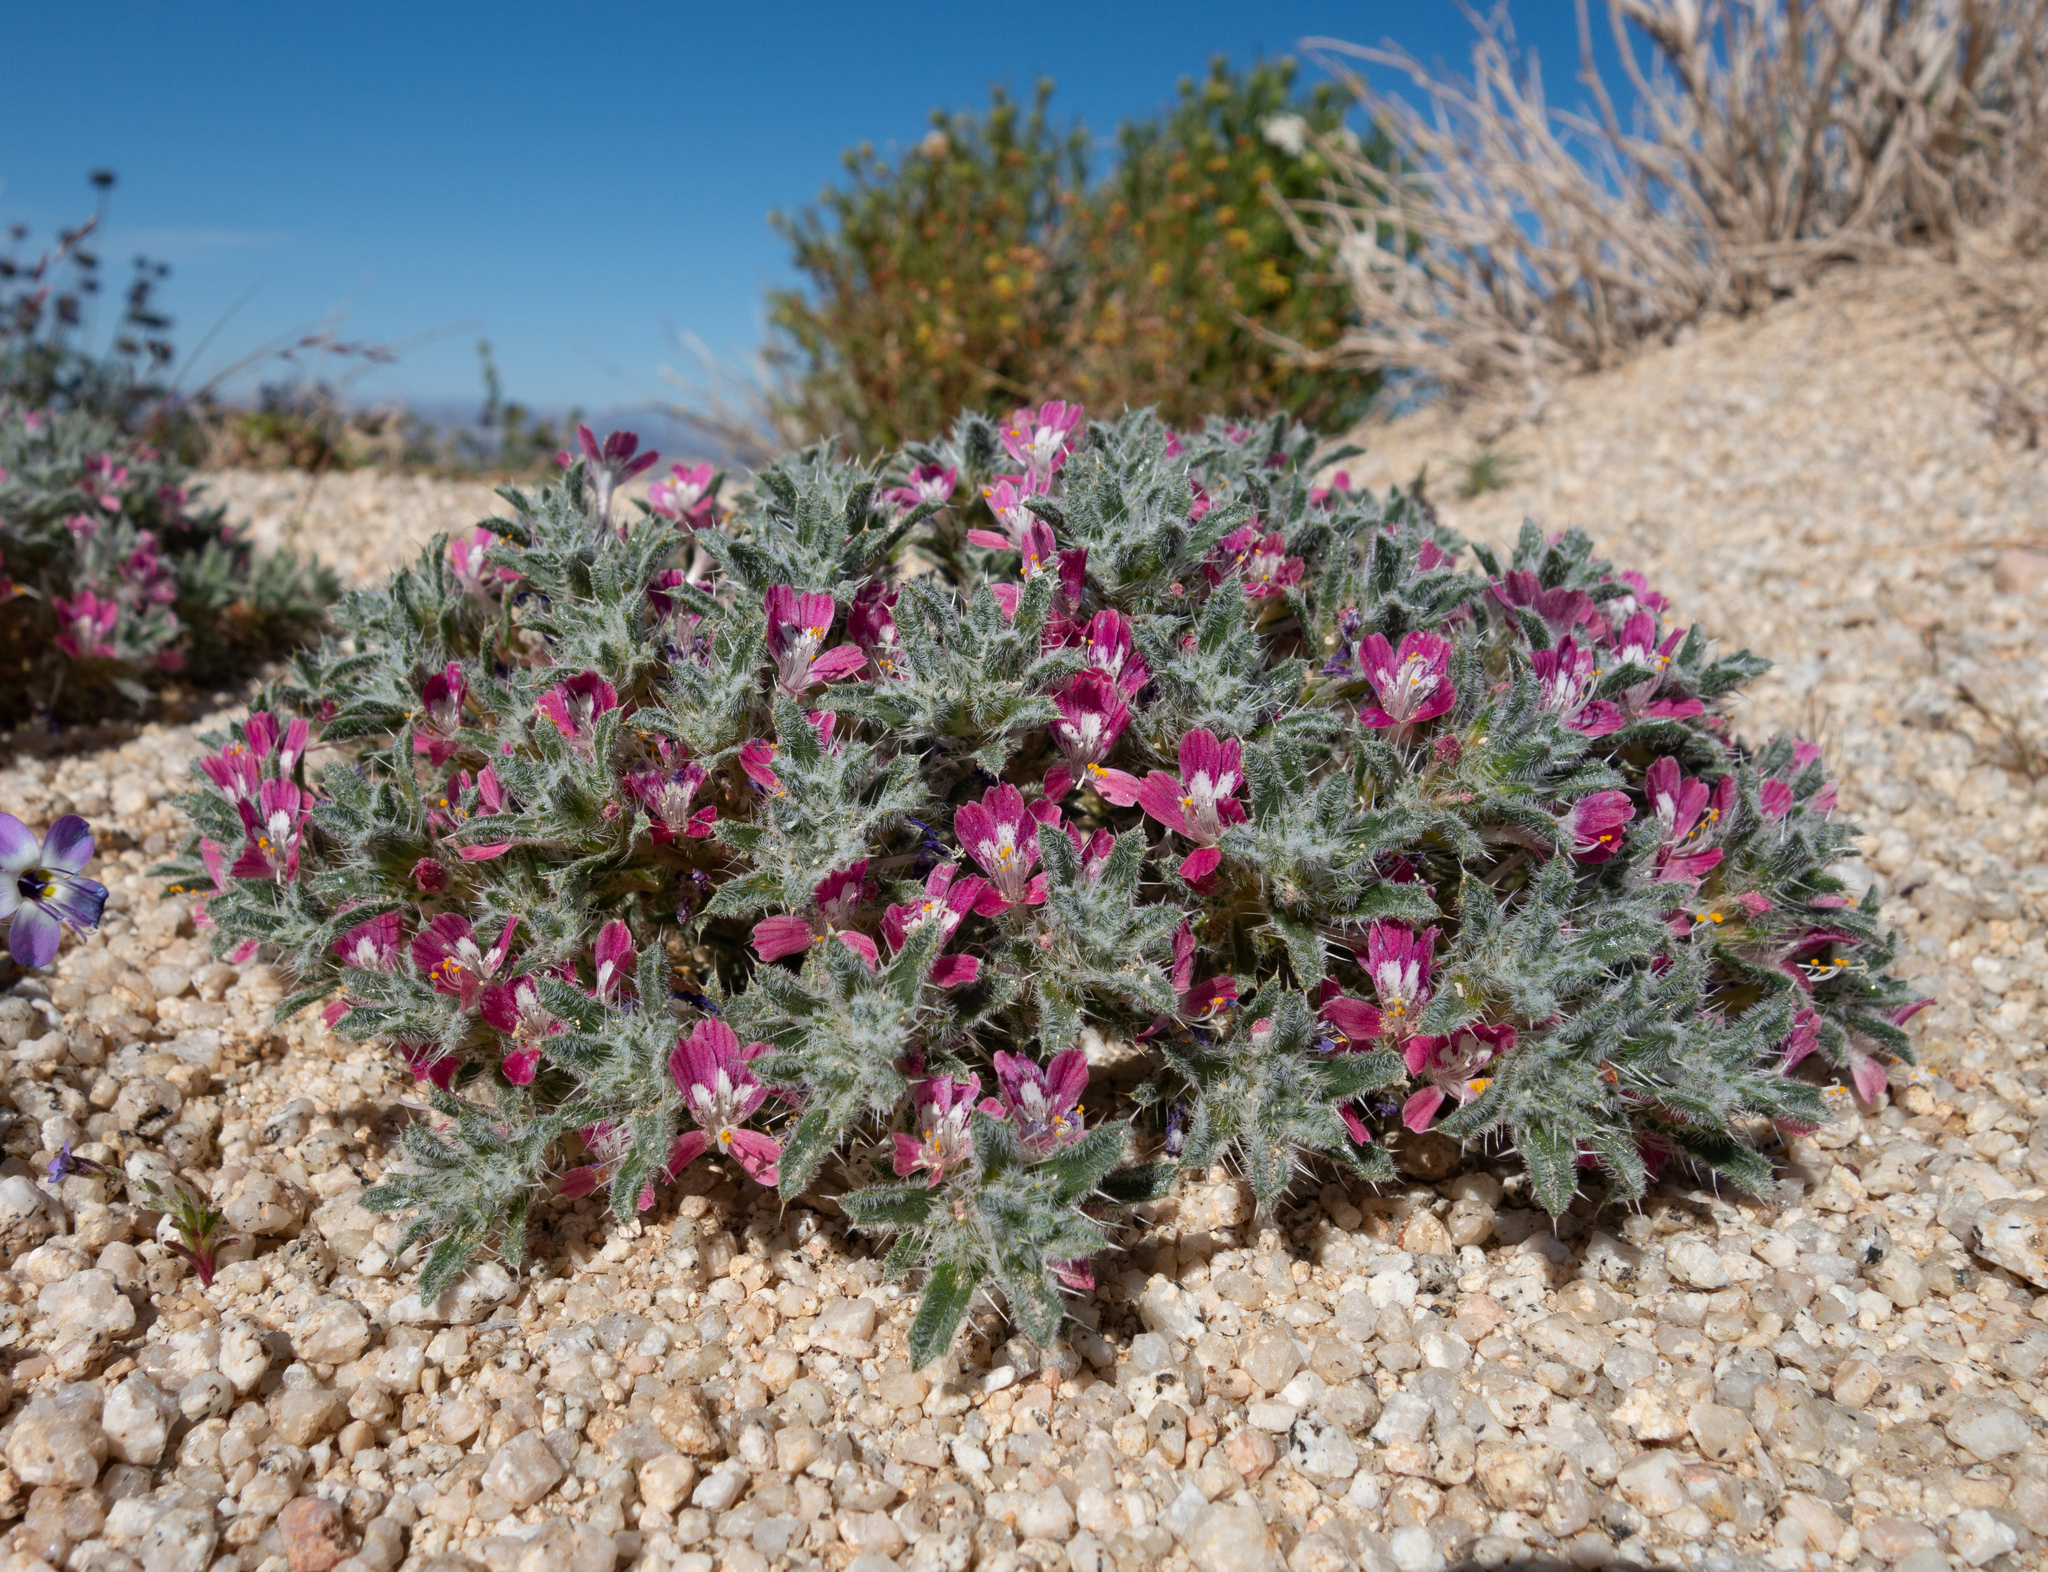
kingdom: Plantae
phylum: Tracheophyta
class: Magnoliopsida
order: Ericales
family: Polemoniaceae
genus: Loeseliastrum
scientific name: Loeseliastrum matthewsii
